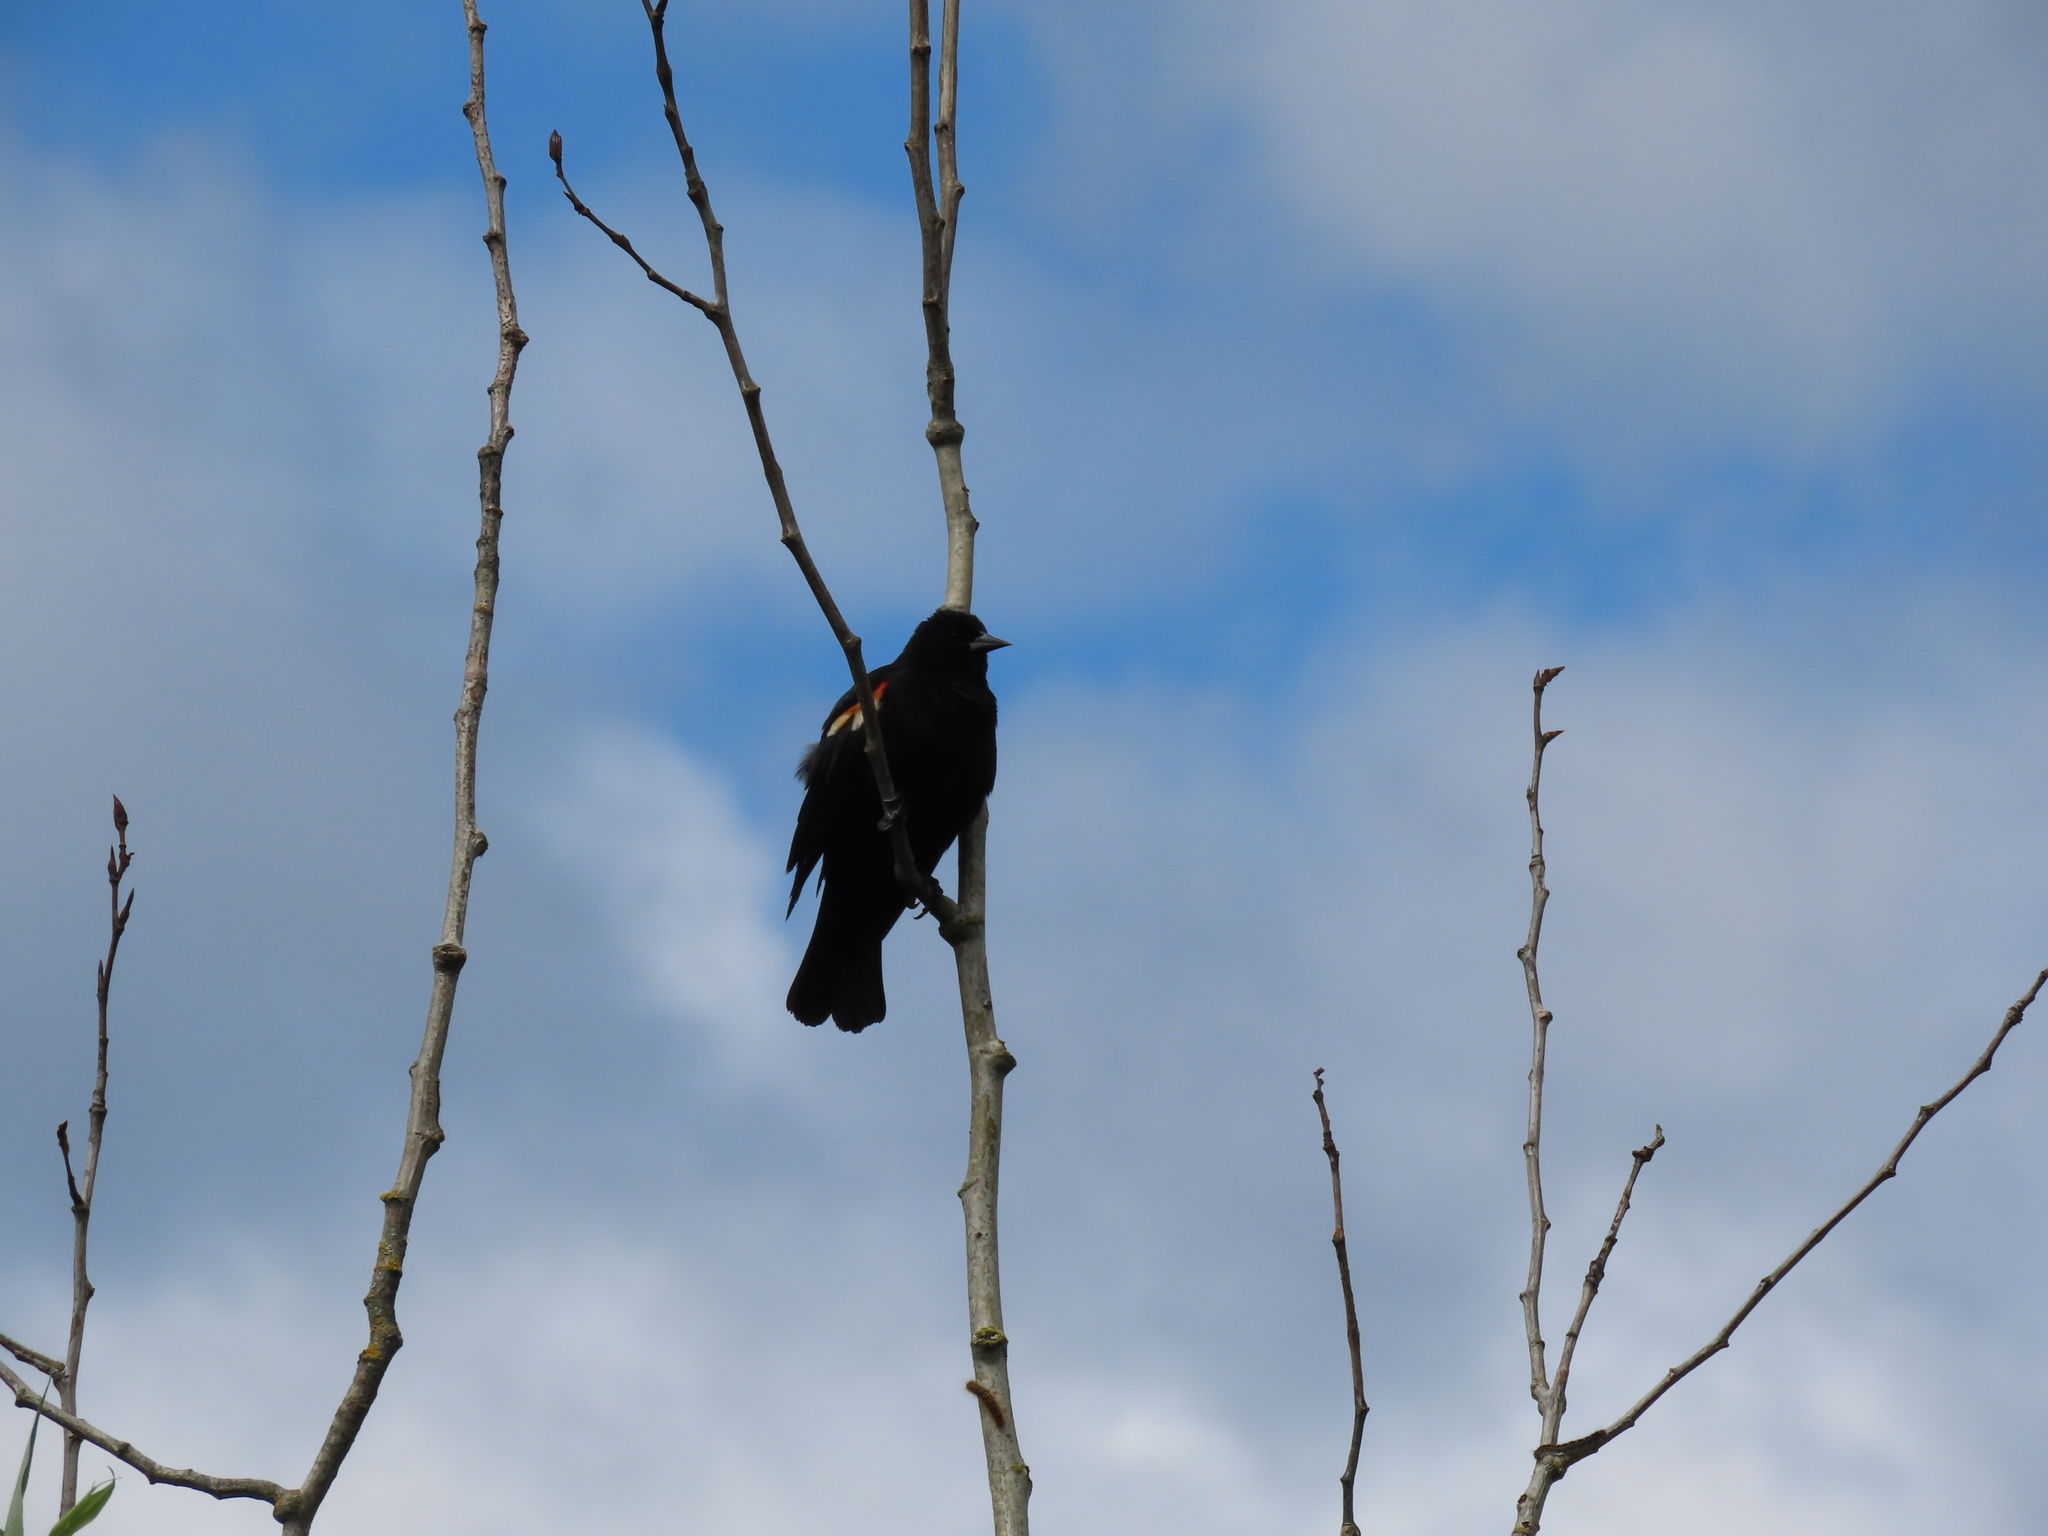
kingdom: Animalia
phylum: Chordata
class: Aves
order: Passeriformes
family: Icteridae
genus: Agelaius
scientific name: Agelaius phoeniceus
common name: Red-winged blackbird
